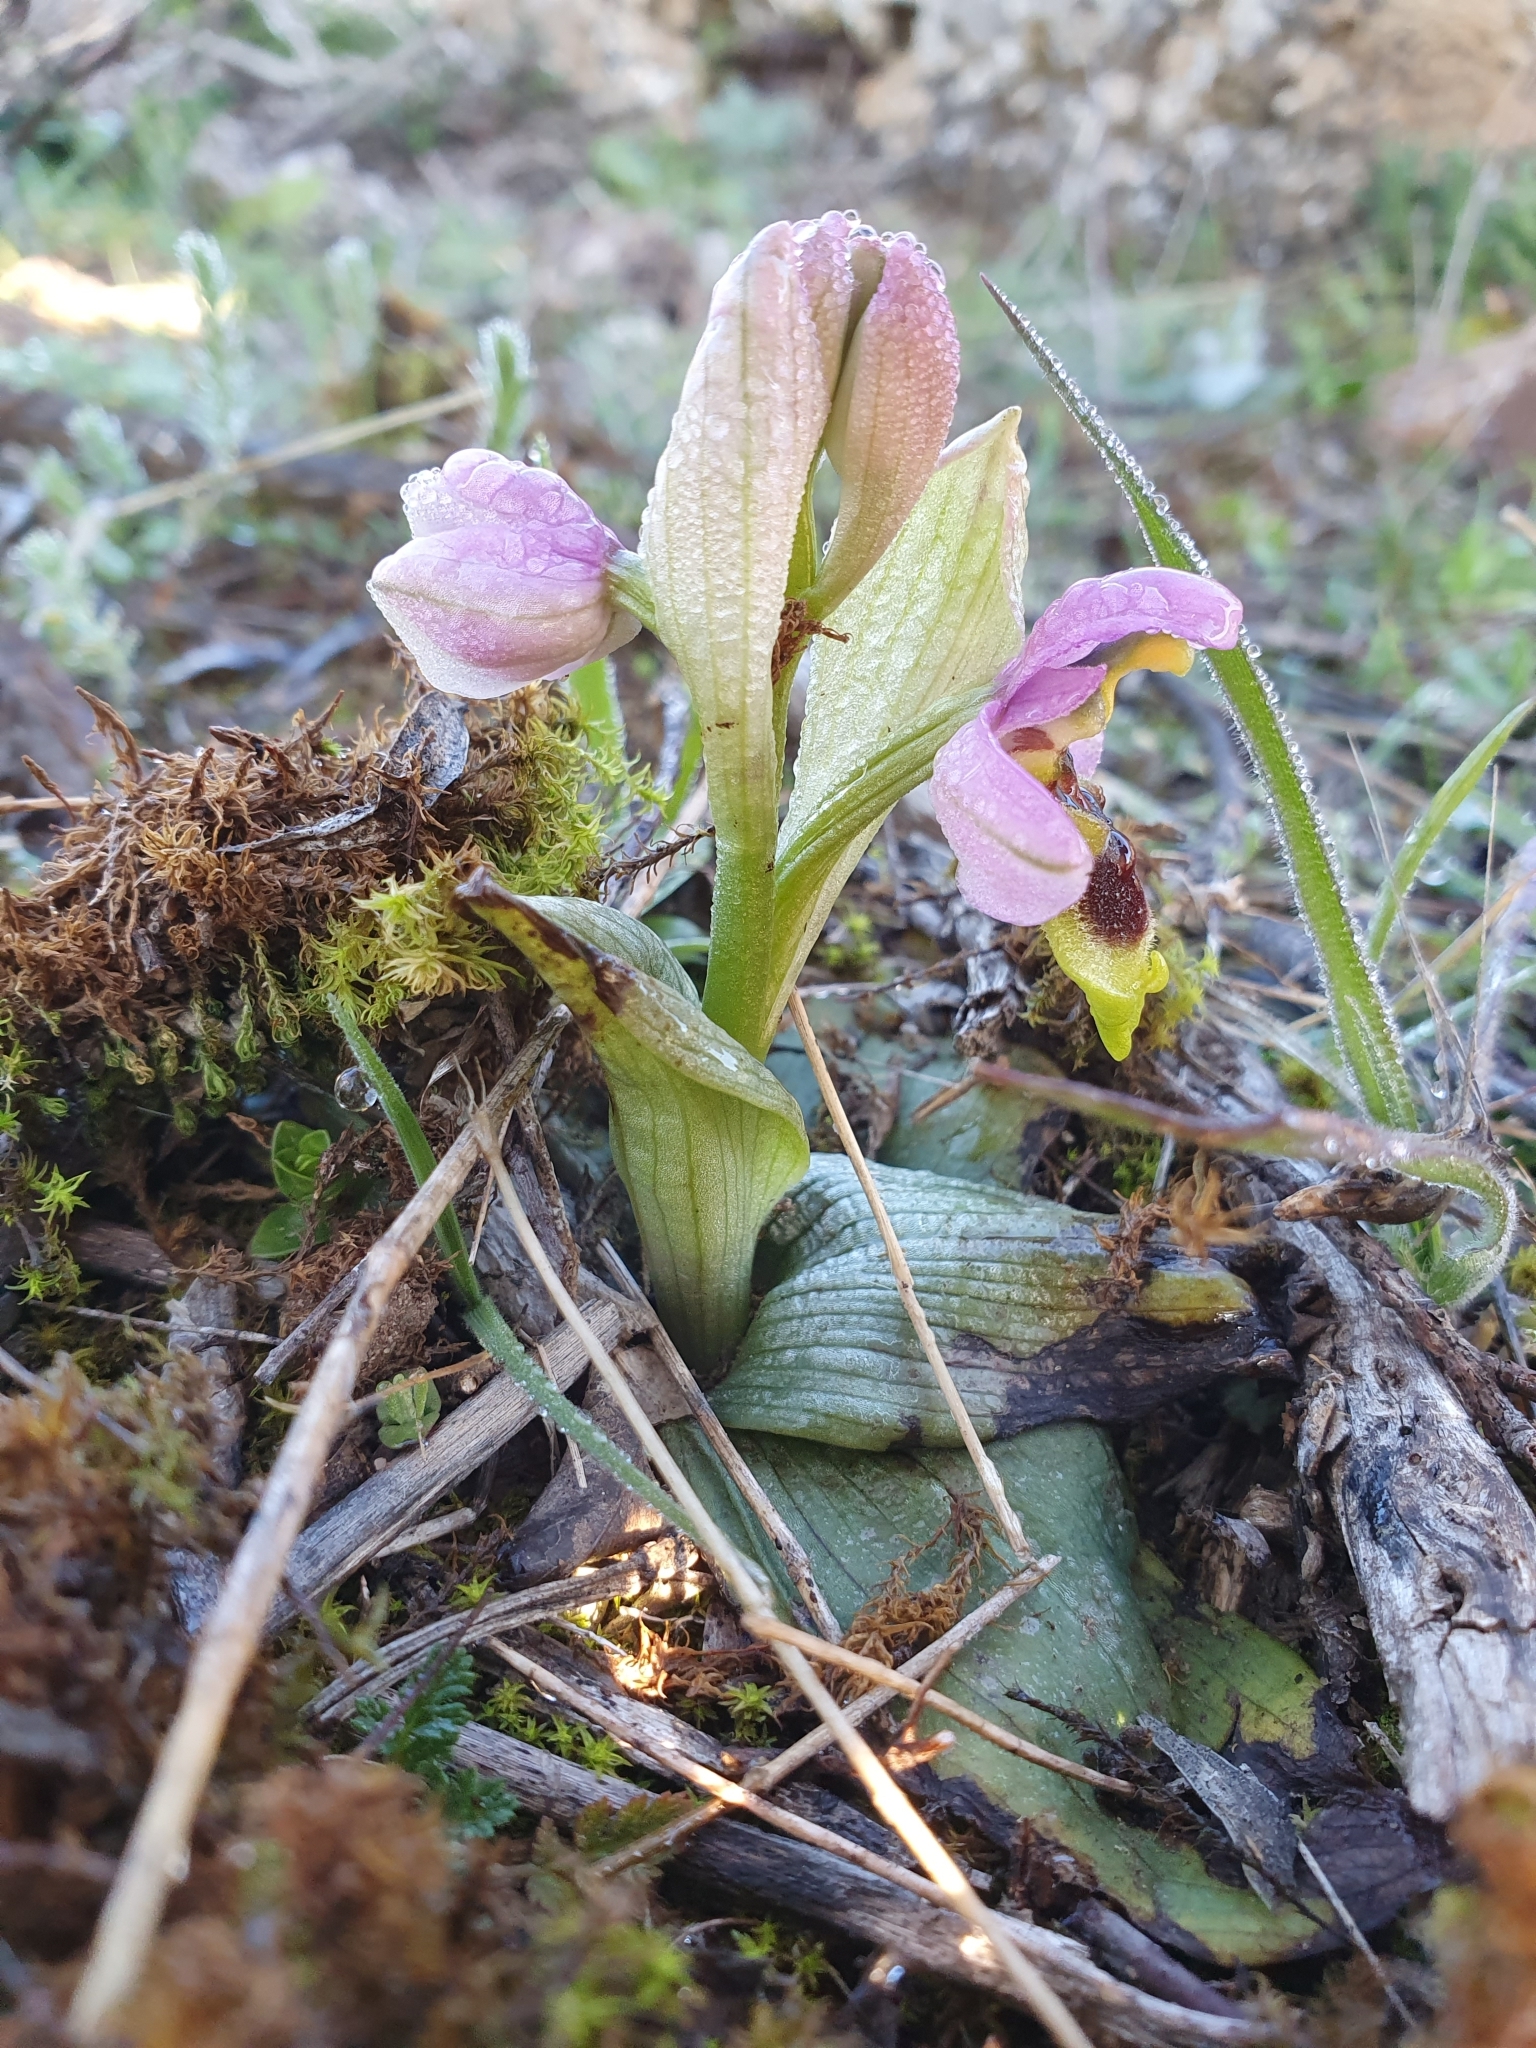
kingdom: Plantae
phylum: Tracheophyta
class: Liliopsida
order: Asparagales
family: Orchidaceae
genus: Ophrys
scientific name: Ophrys tenthredinifera
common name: Sawfly orchid
